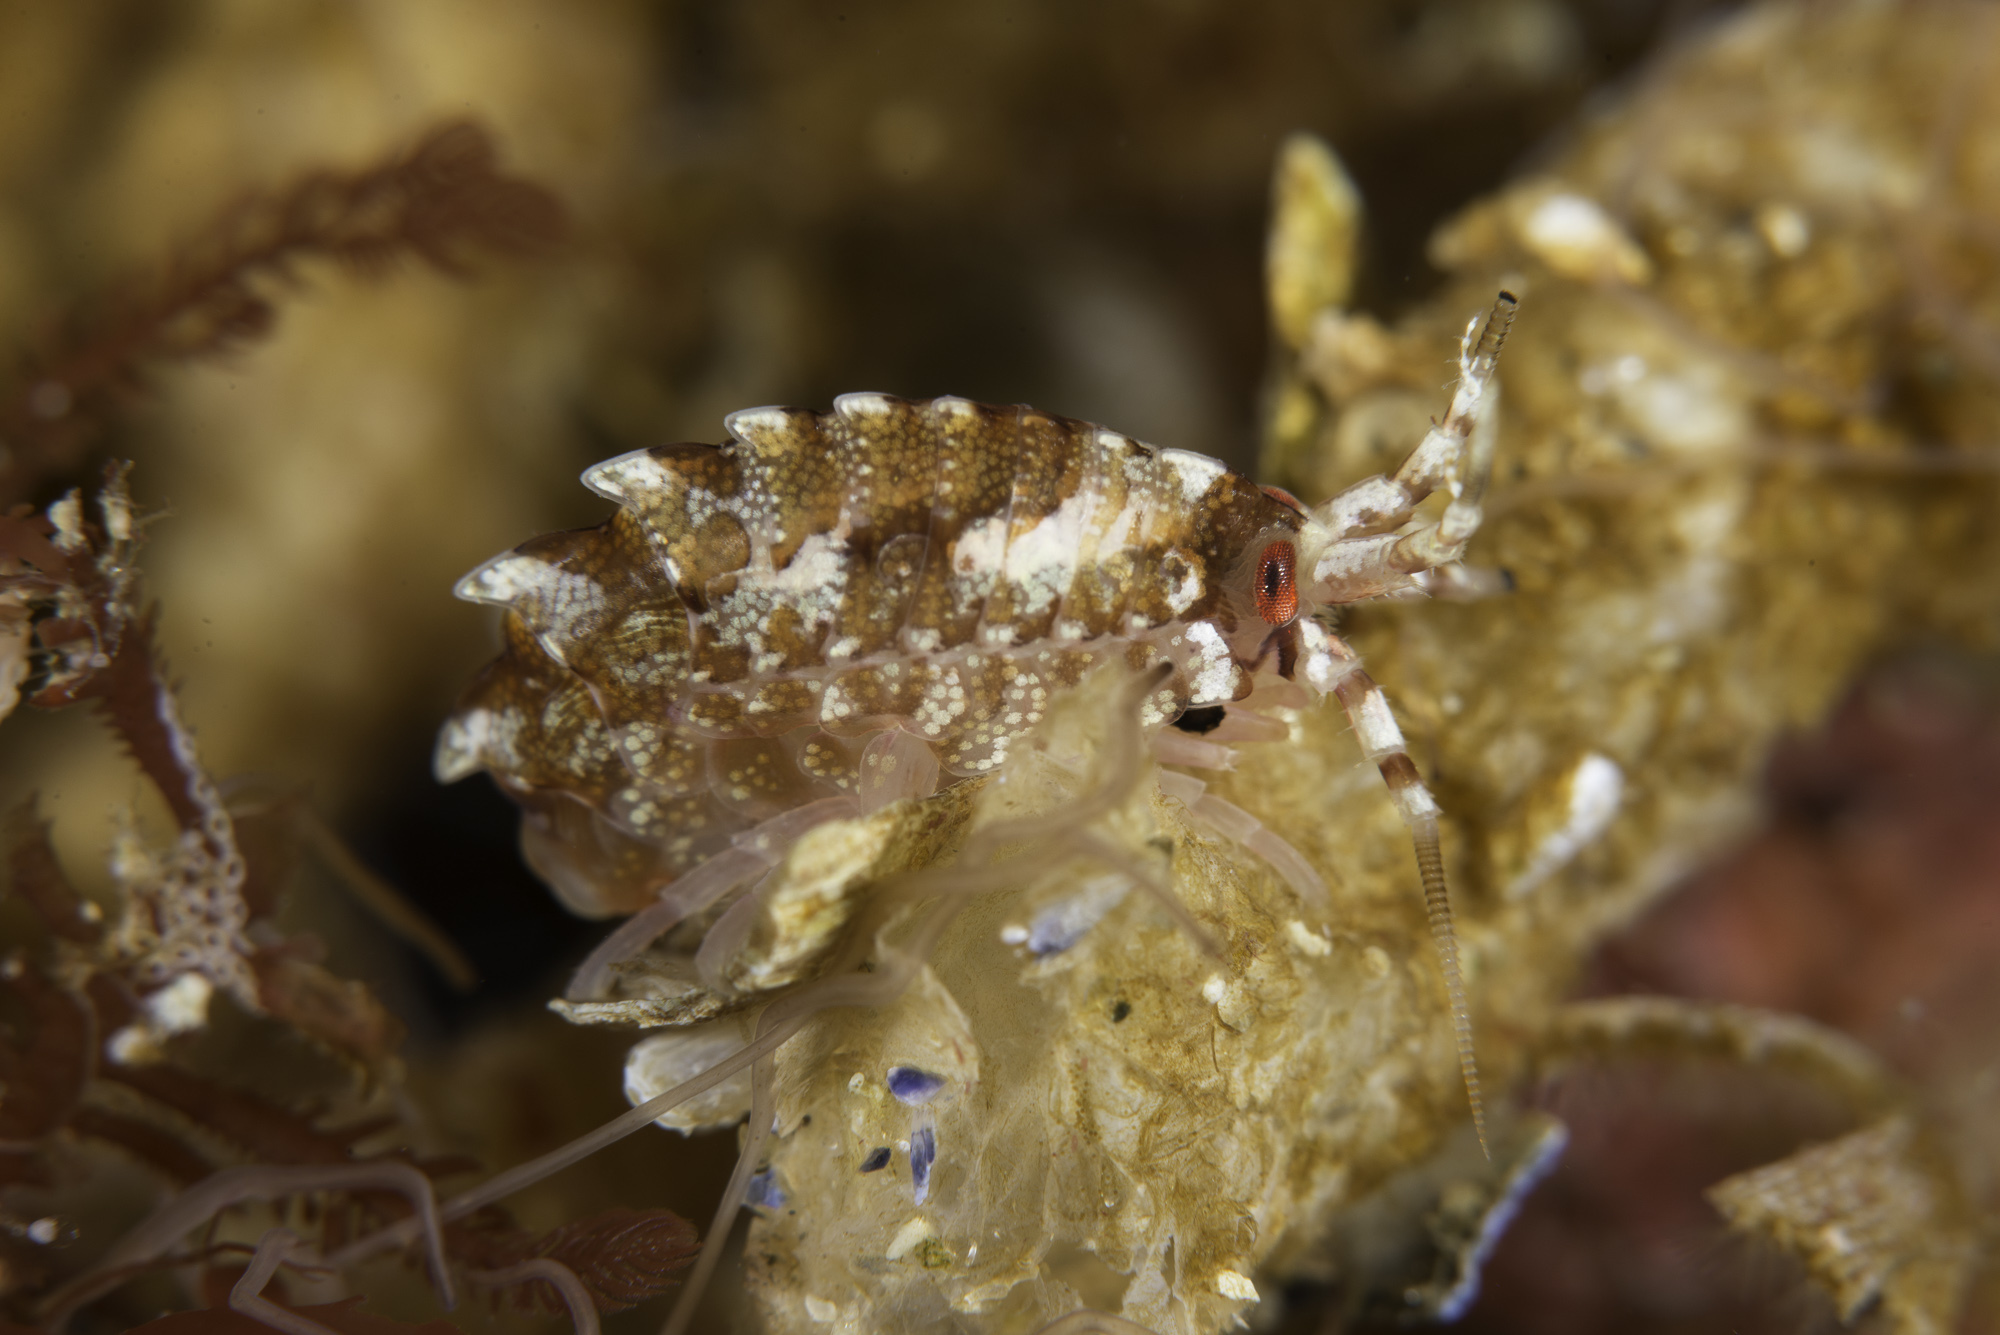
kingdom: Animalia
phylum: Arthropoda
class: Malacostraca
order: Amphipoda
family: Gammarellidae
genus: Gammarellus
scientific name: Gammarellus homari
